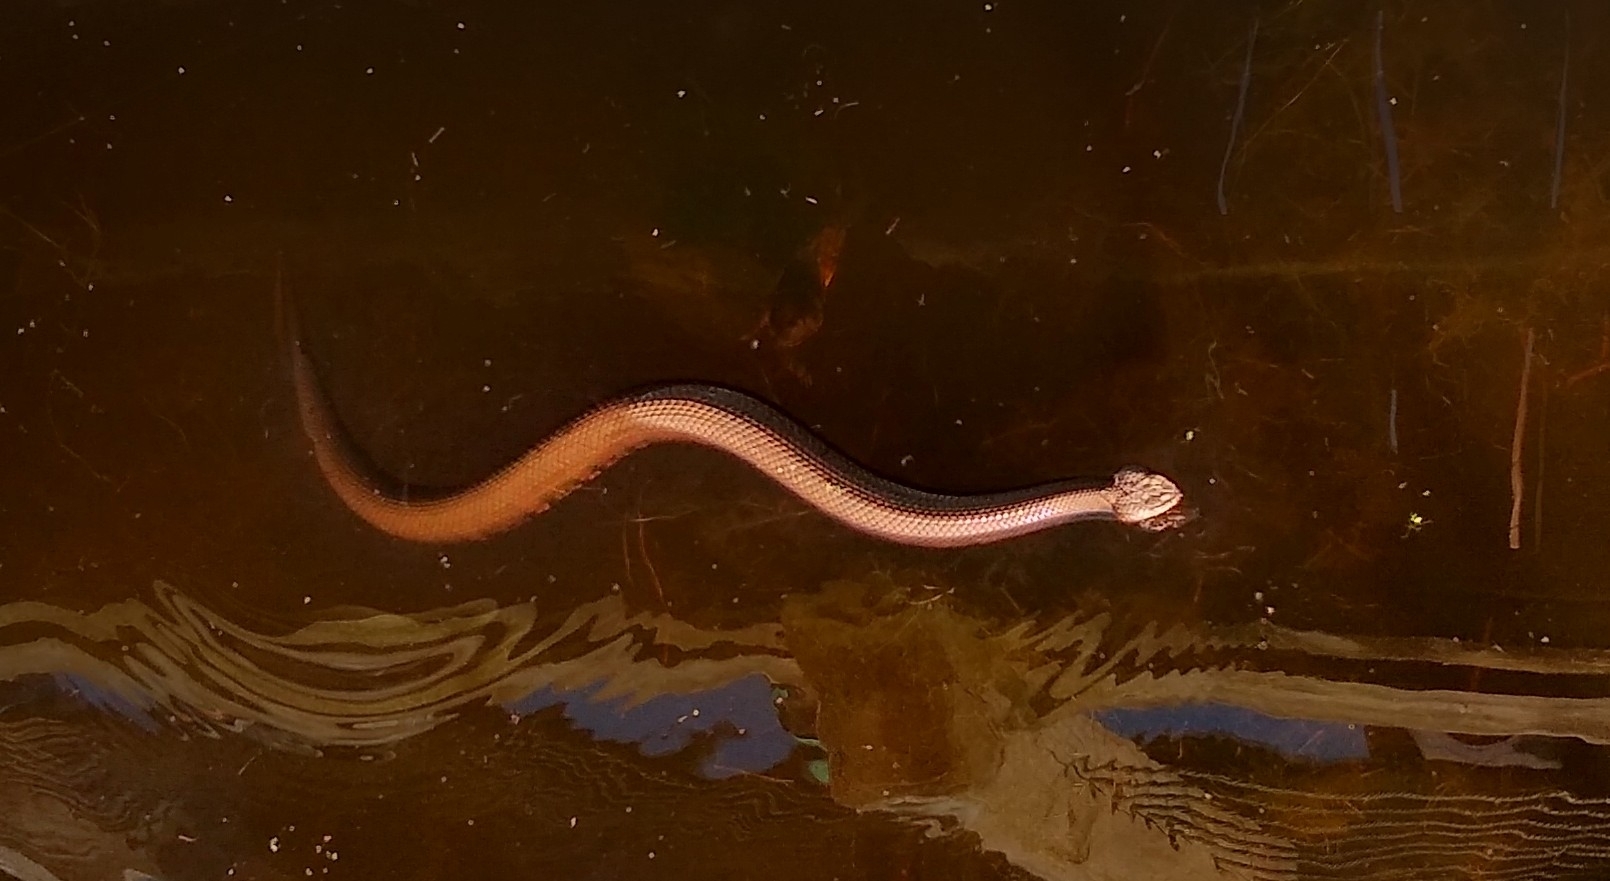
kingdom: Animalia
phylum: Chordata
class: Squamata
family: Viperidae
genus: Agkistrodon
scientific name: Agkistrodon piscivorus
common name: Cottonmouth
